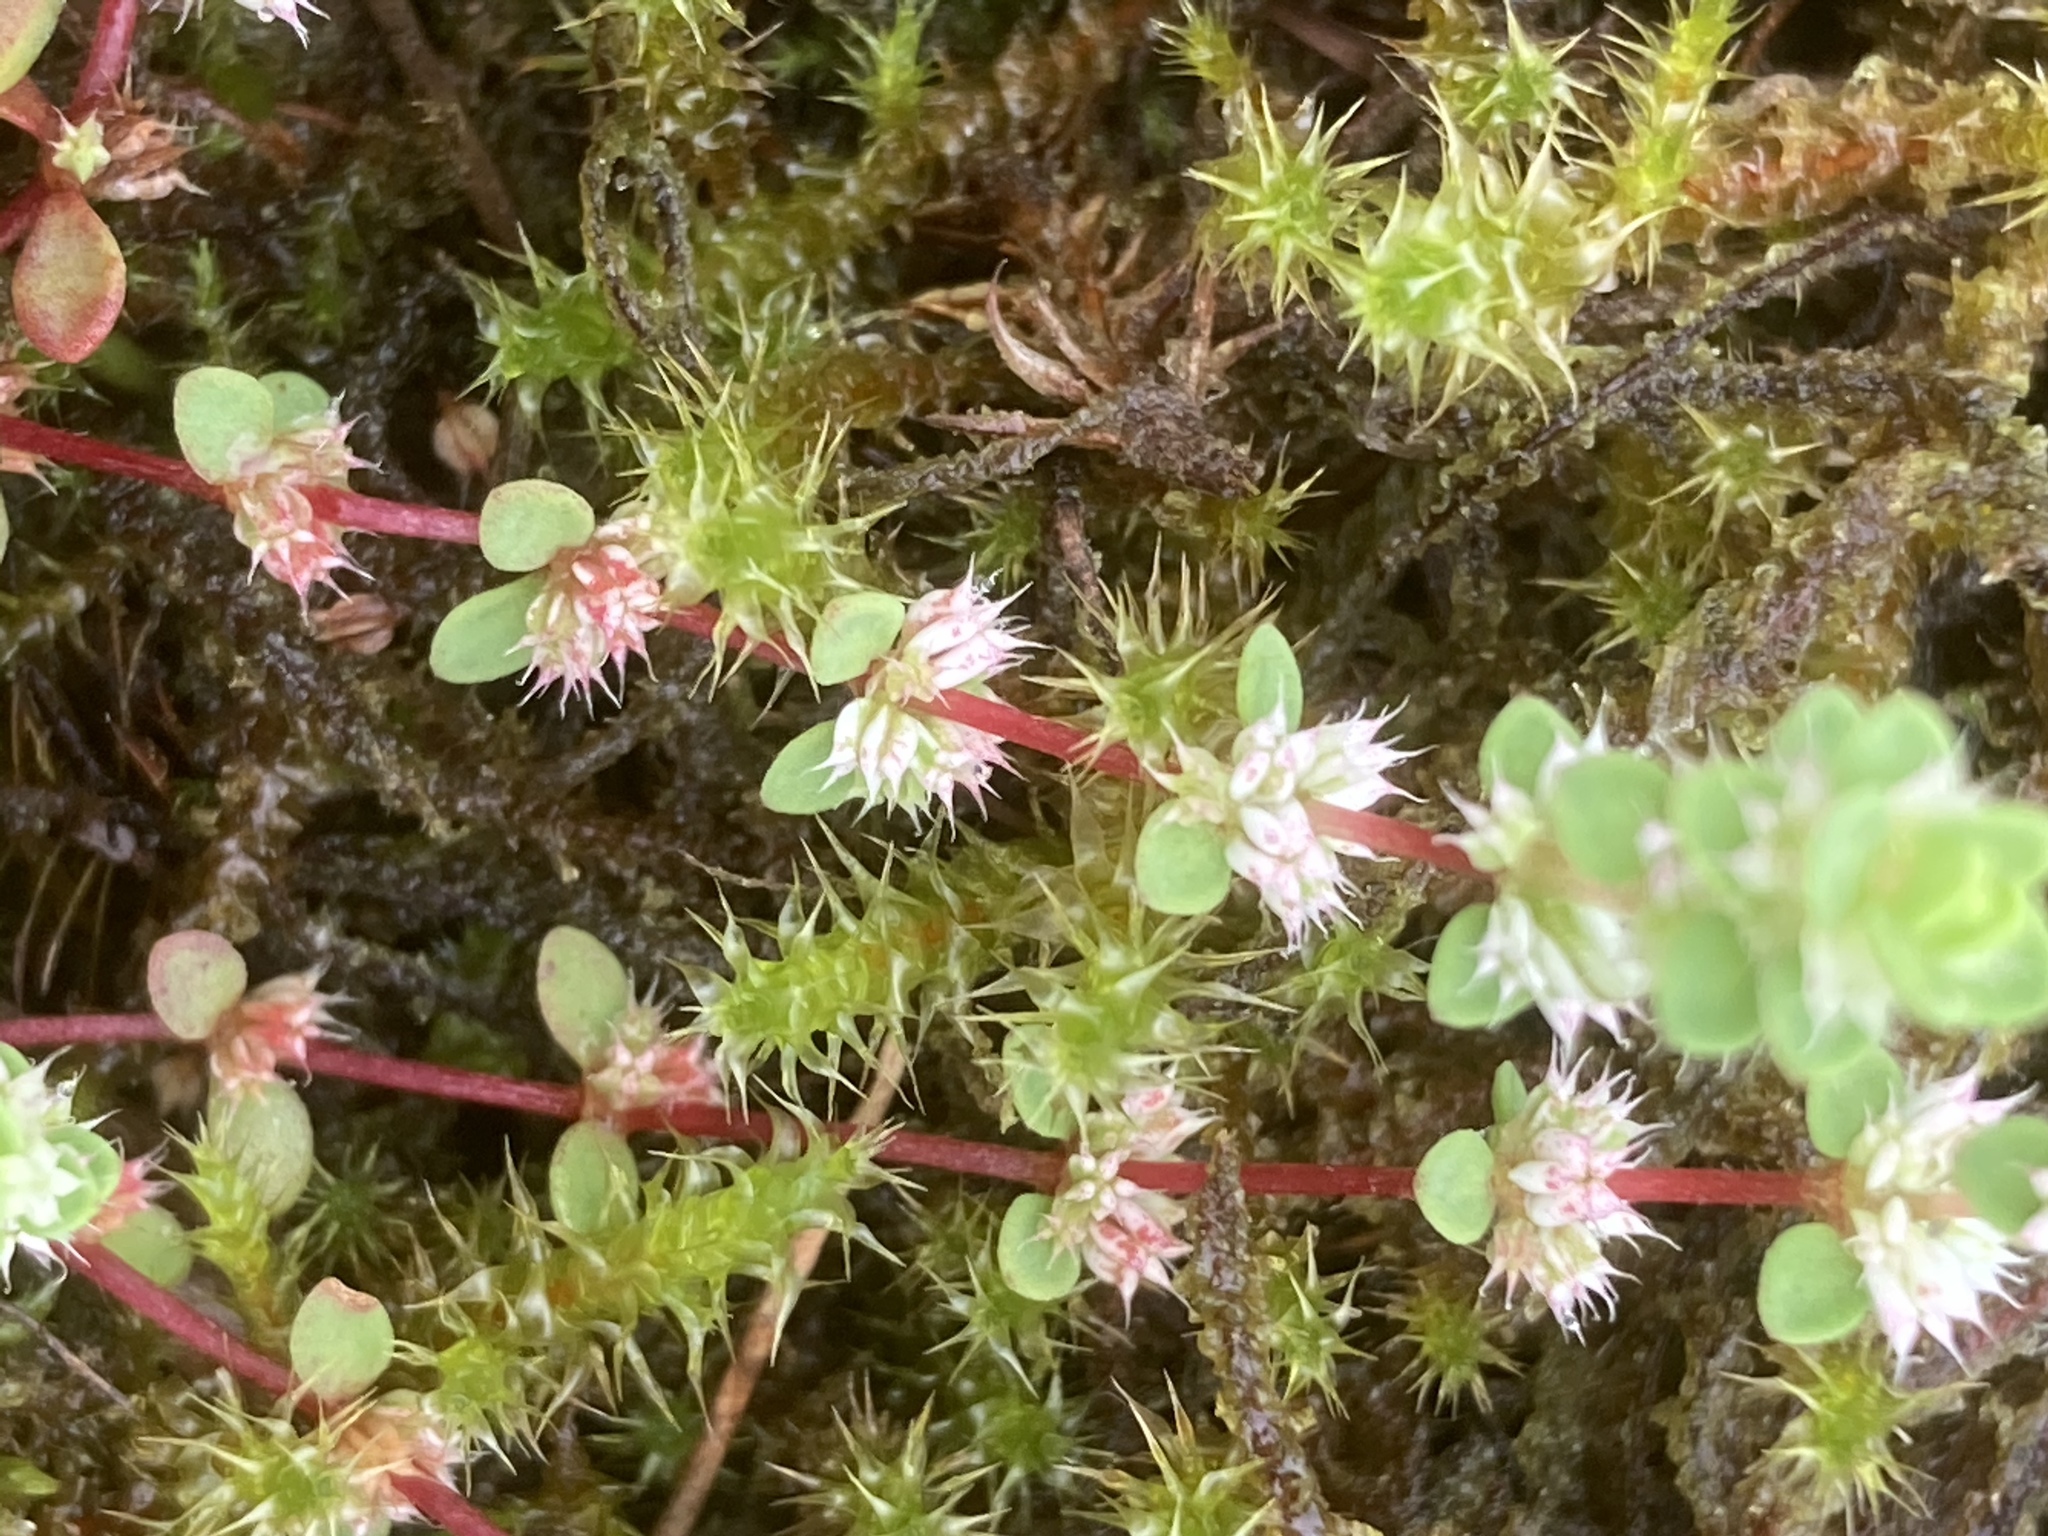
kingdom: Plantae
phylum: Bryophyta
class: Bryopsida
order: Hypnales
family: Hylocomiaceae
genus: Rhytidiadelphus
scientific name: Rhytidiadelphus squarrosus
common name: Springy turf-moss
